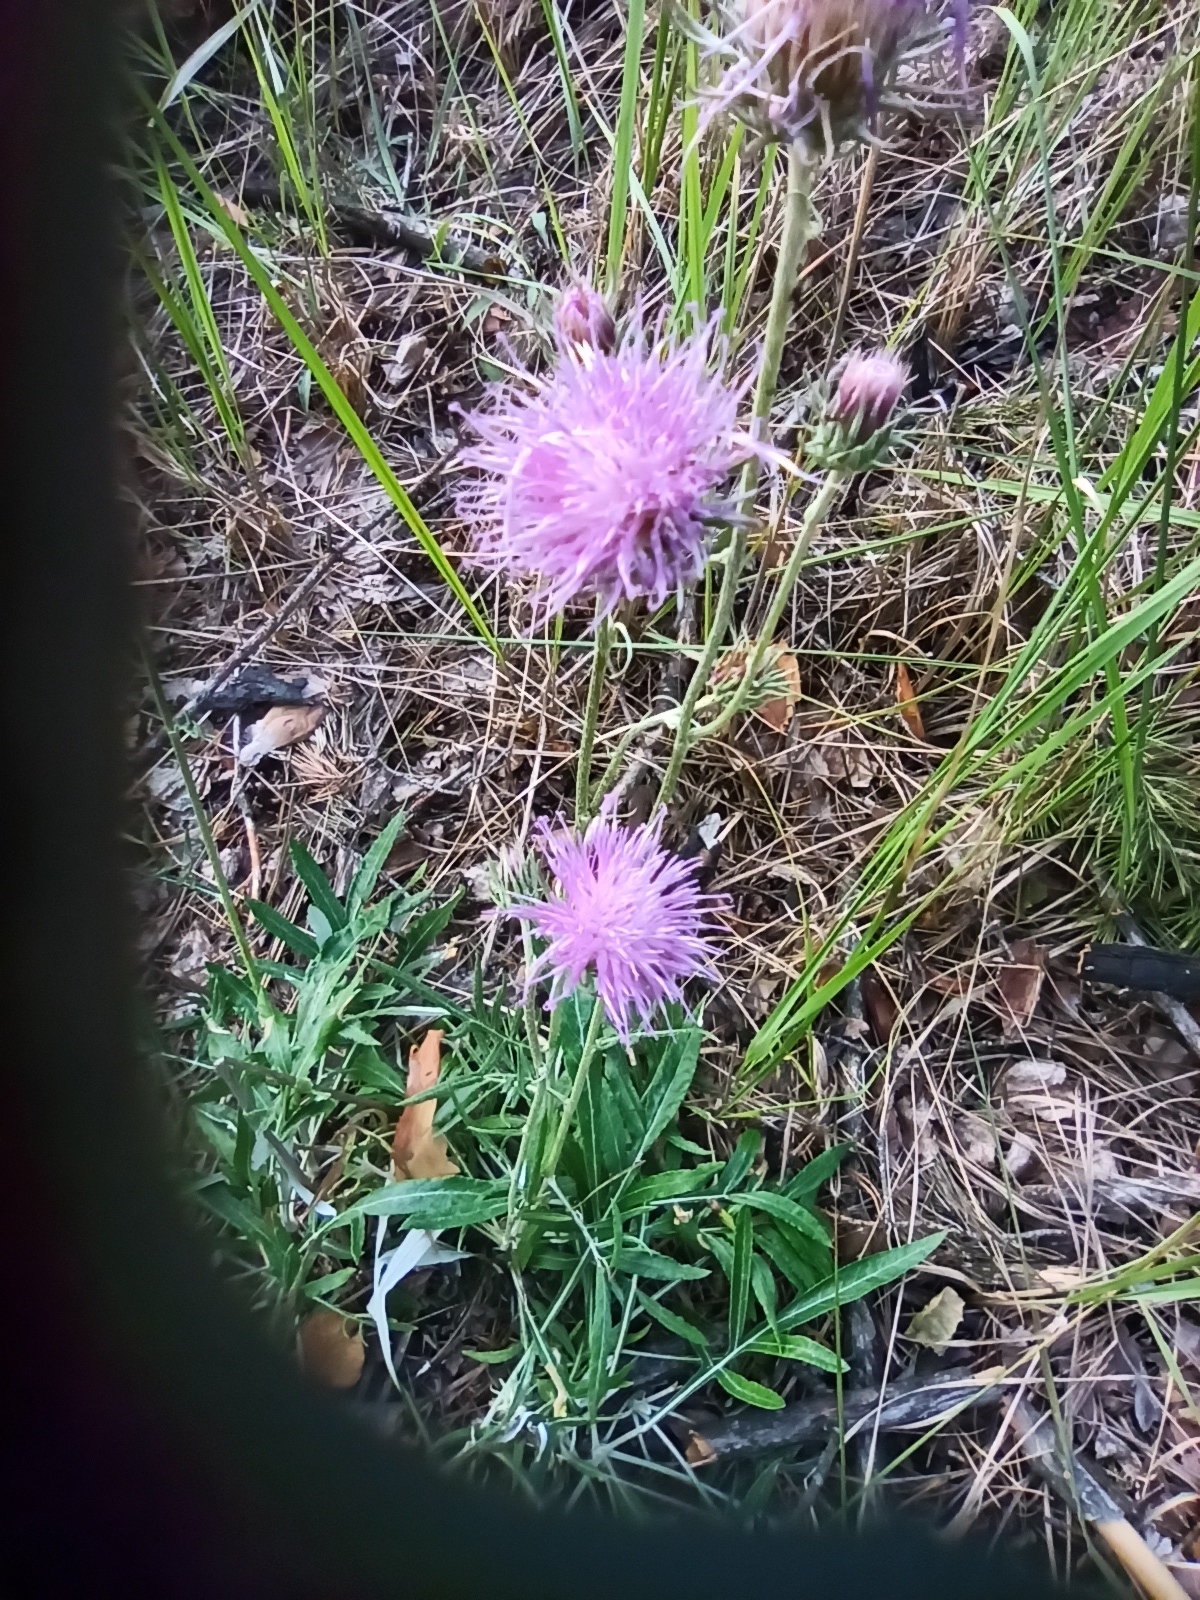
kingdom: Plantae
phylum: Tracheophyta
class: Magnoliopsida
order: Asterales
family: Asteraceae
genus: Jurinea
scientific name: Jurinea cyanoides
